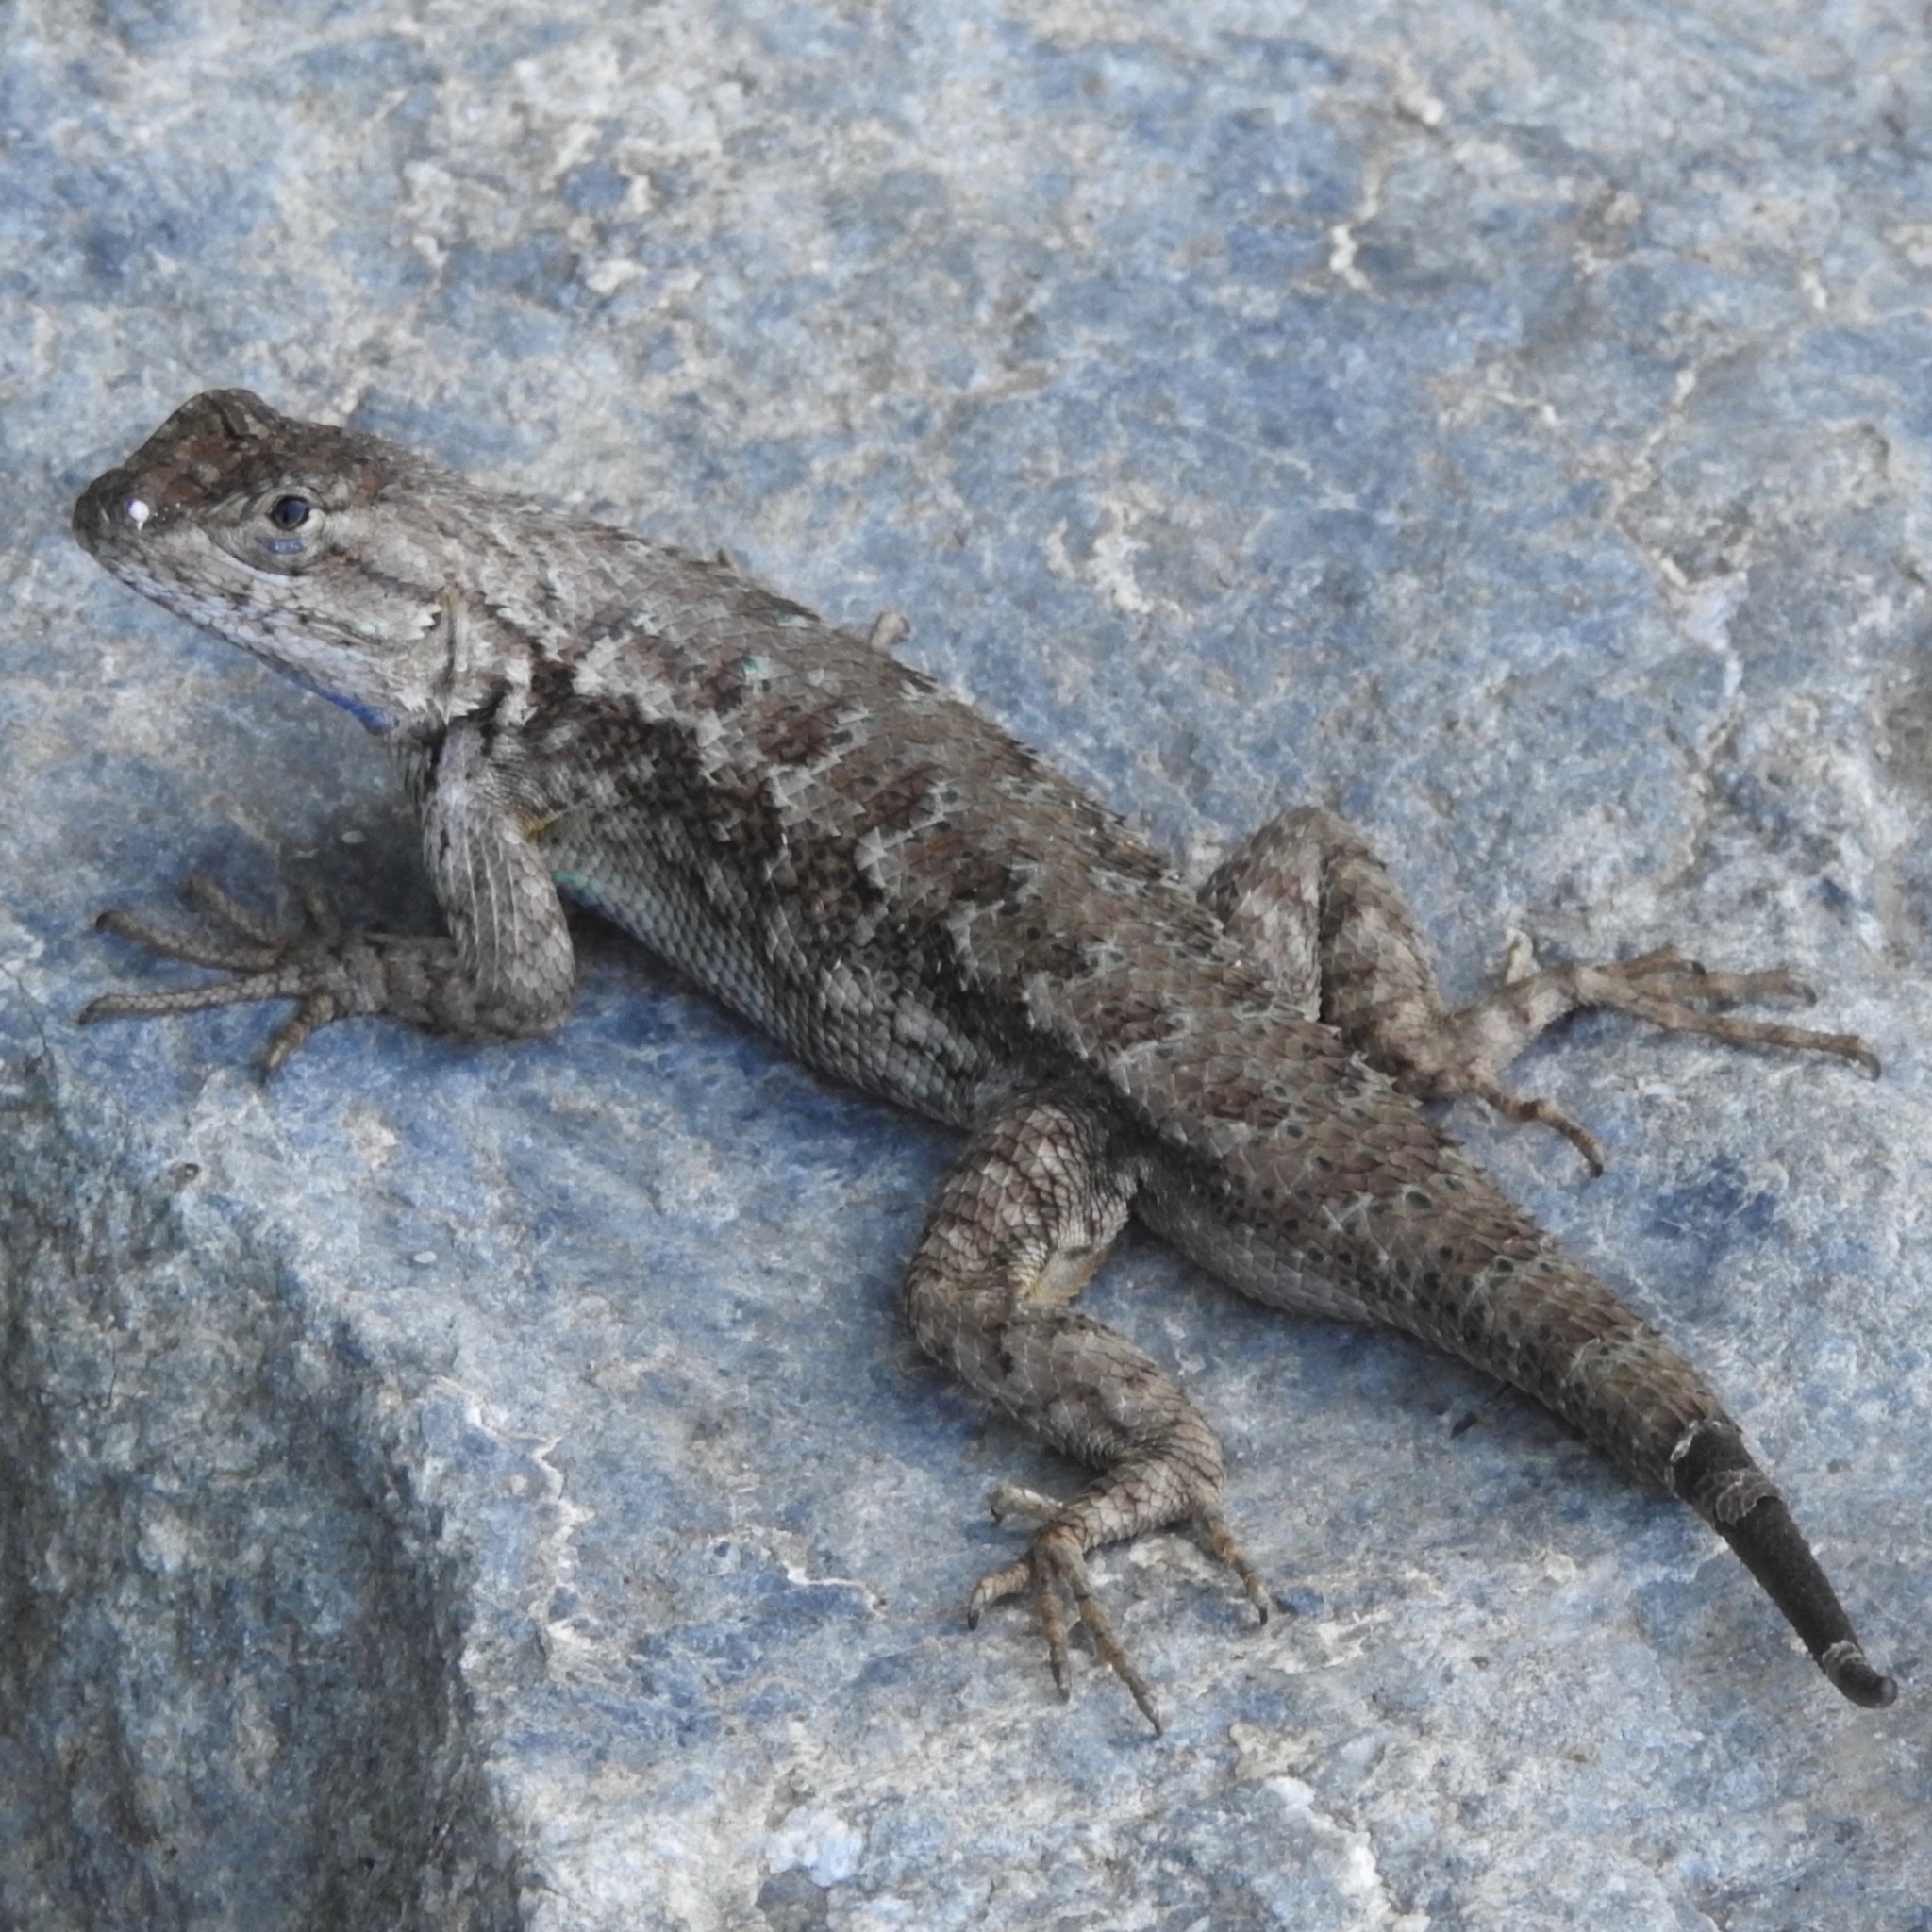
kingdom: Animalia
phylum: Chordata
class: Squamata
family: Phrynosomatidae
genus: Sceloporus
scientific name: Sceloporus occidentalis
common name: Western fence lizard
